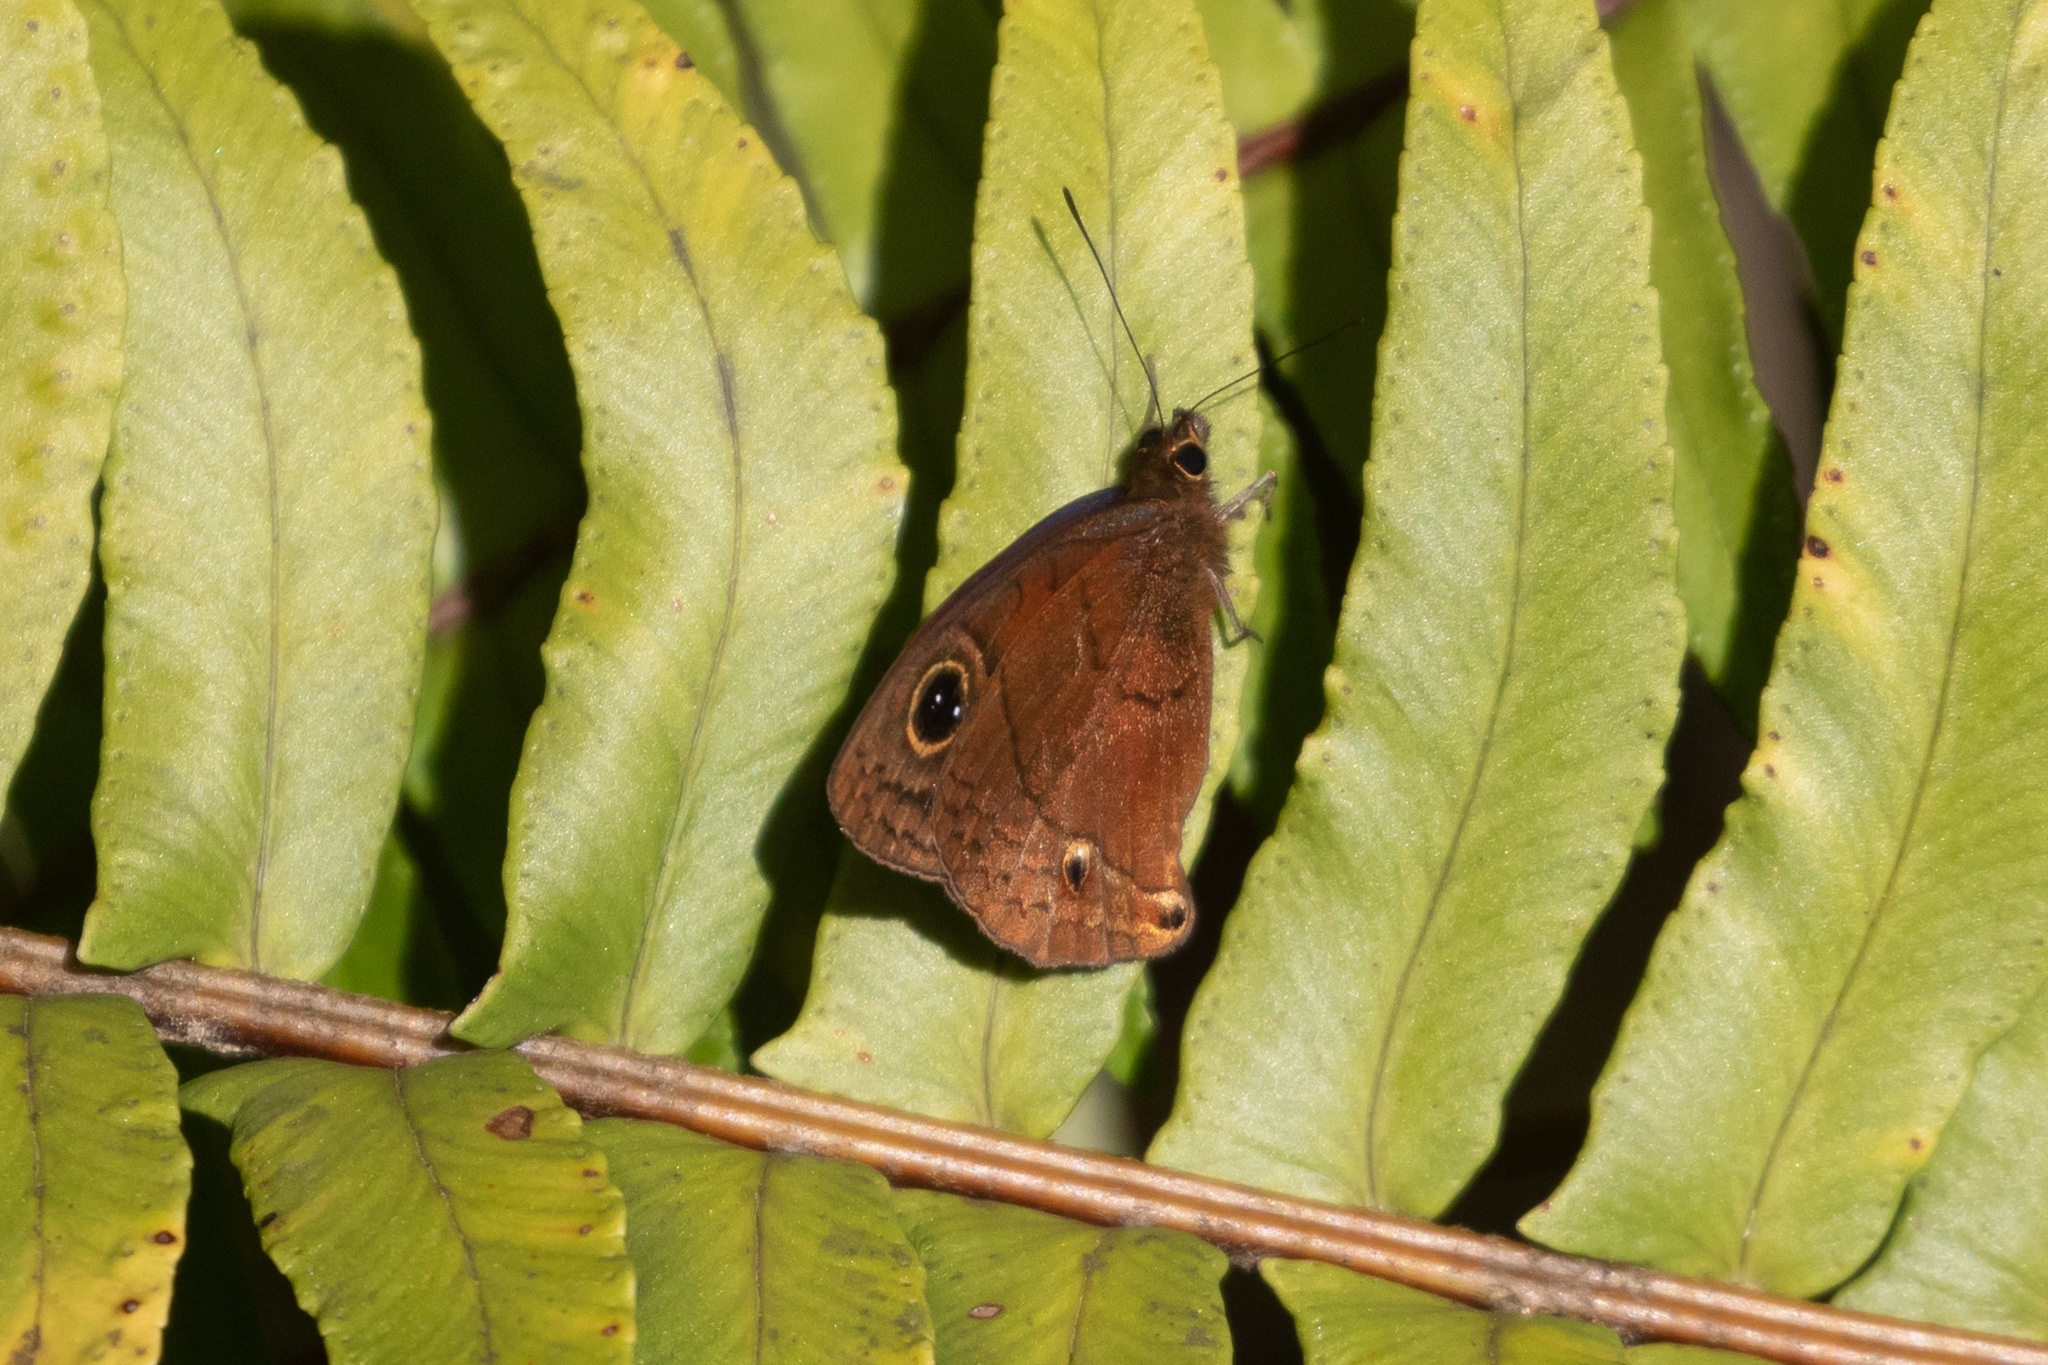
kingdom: Animalia
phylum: Arthropoda
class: Insecta
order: Lepidoptera
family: Nymphalidae
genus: Calisto
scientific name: Calisto nubila
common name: Puerto rican calisto
